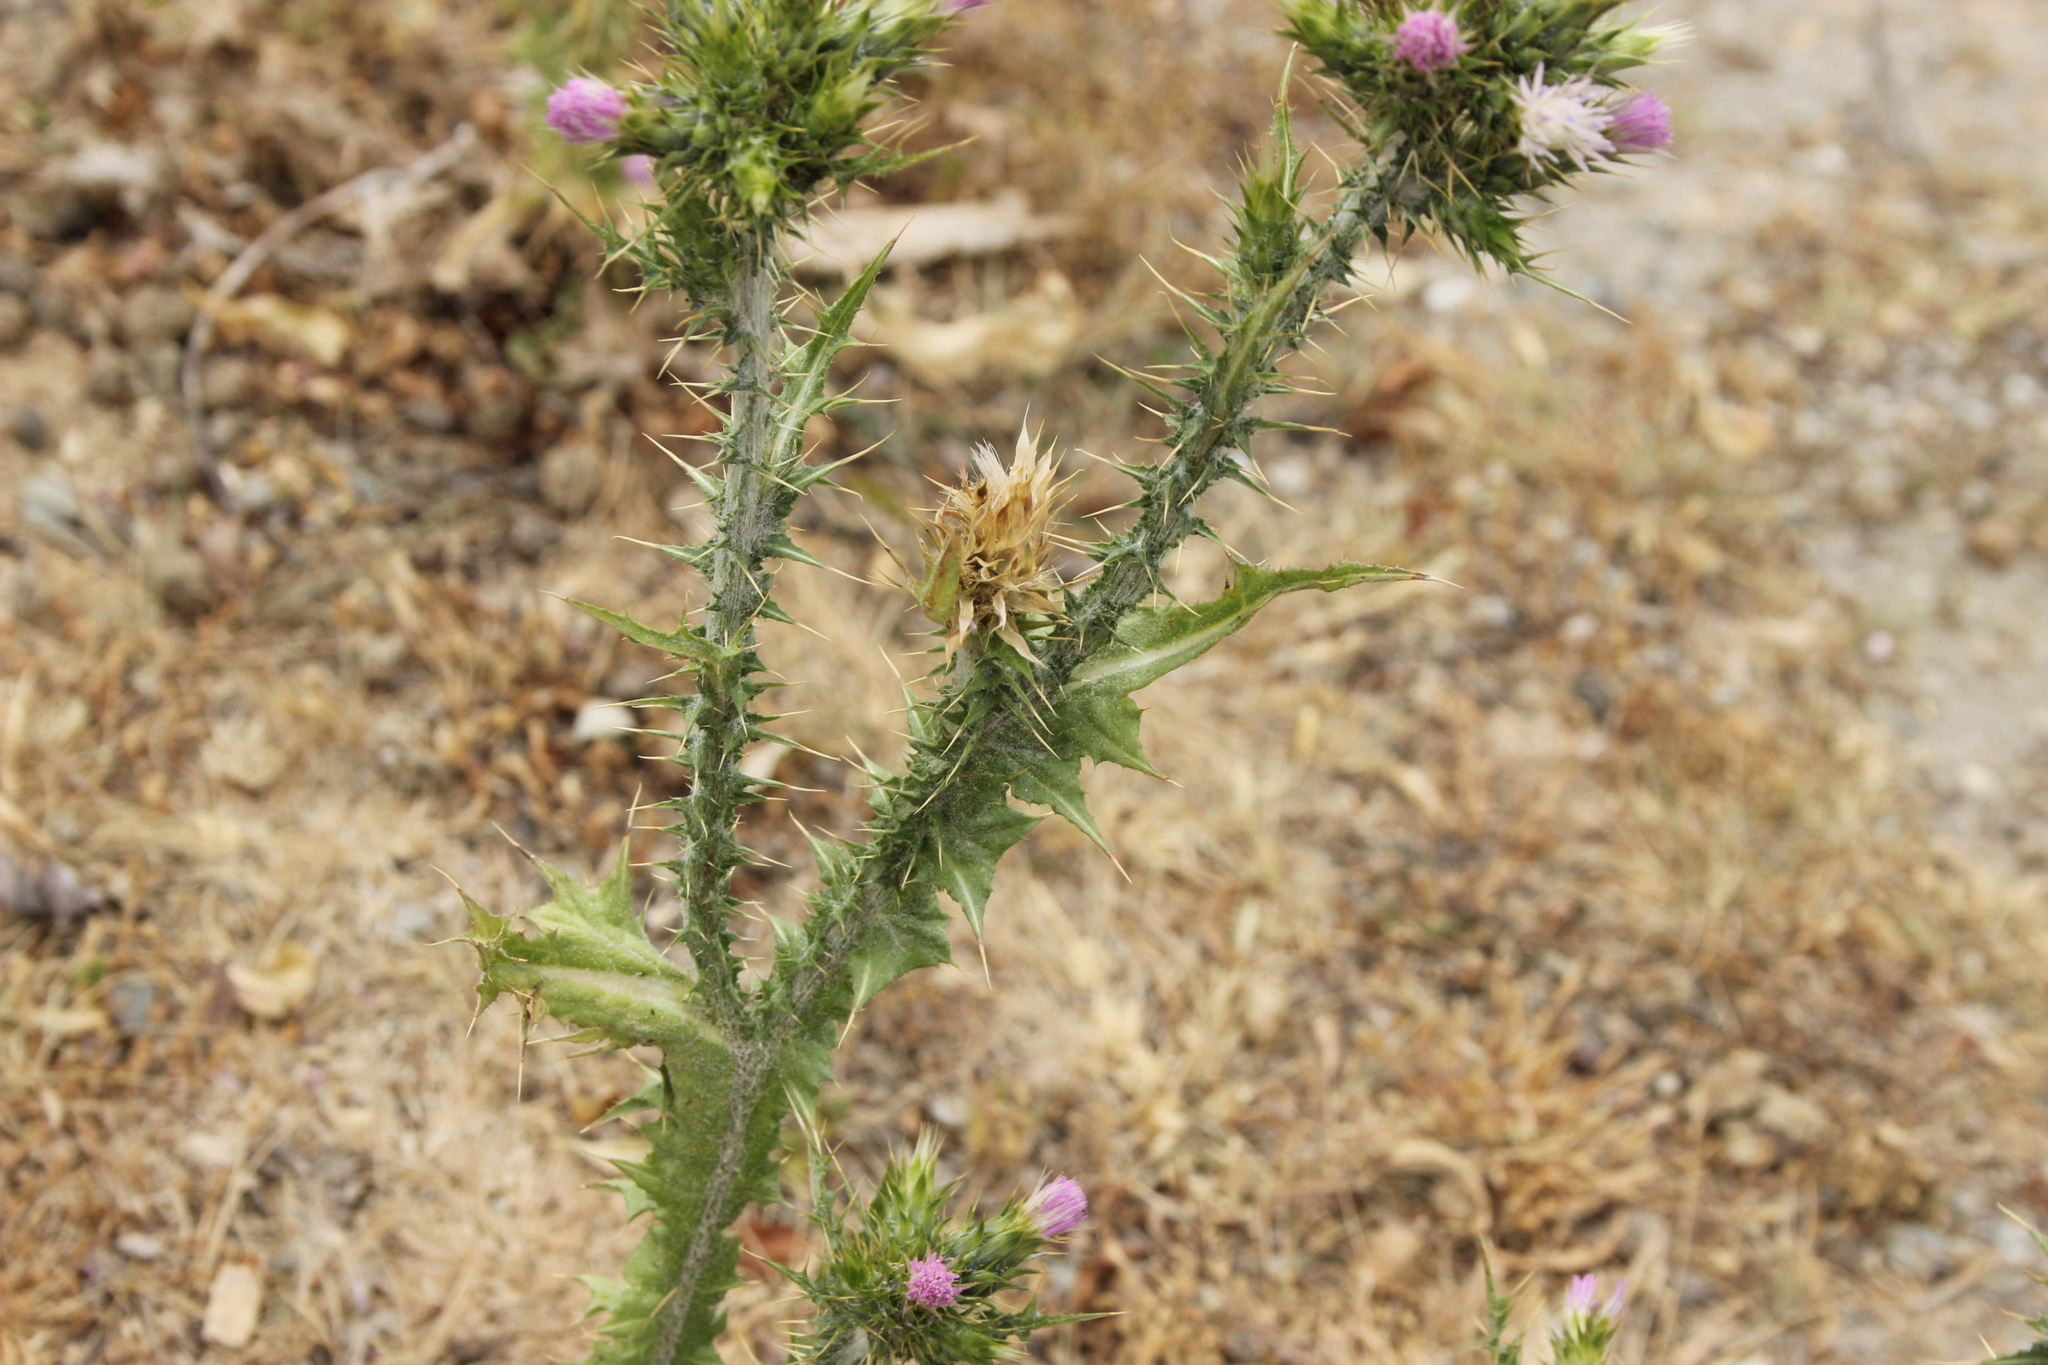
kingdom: Plantae
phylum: Tracheophyta
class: Magnoliopsida
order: Asterales
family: Asteraceae
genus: Carduus
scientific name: Carduus tenuiflorus
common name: Slender thistle
